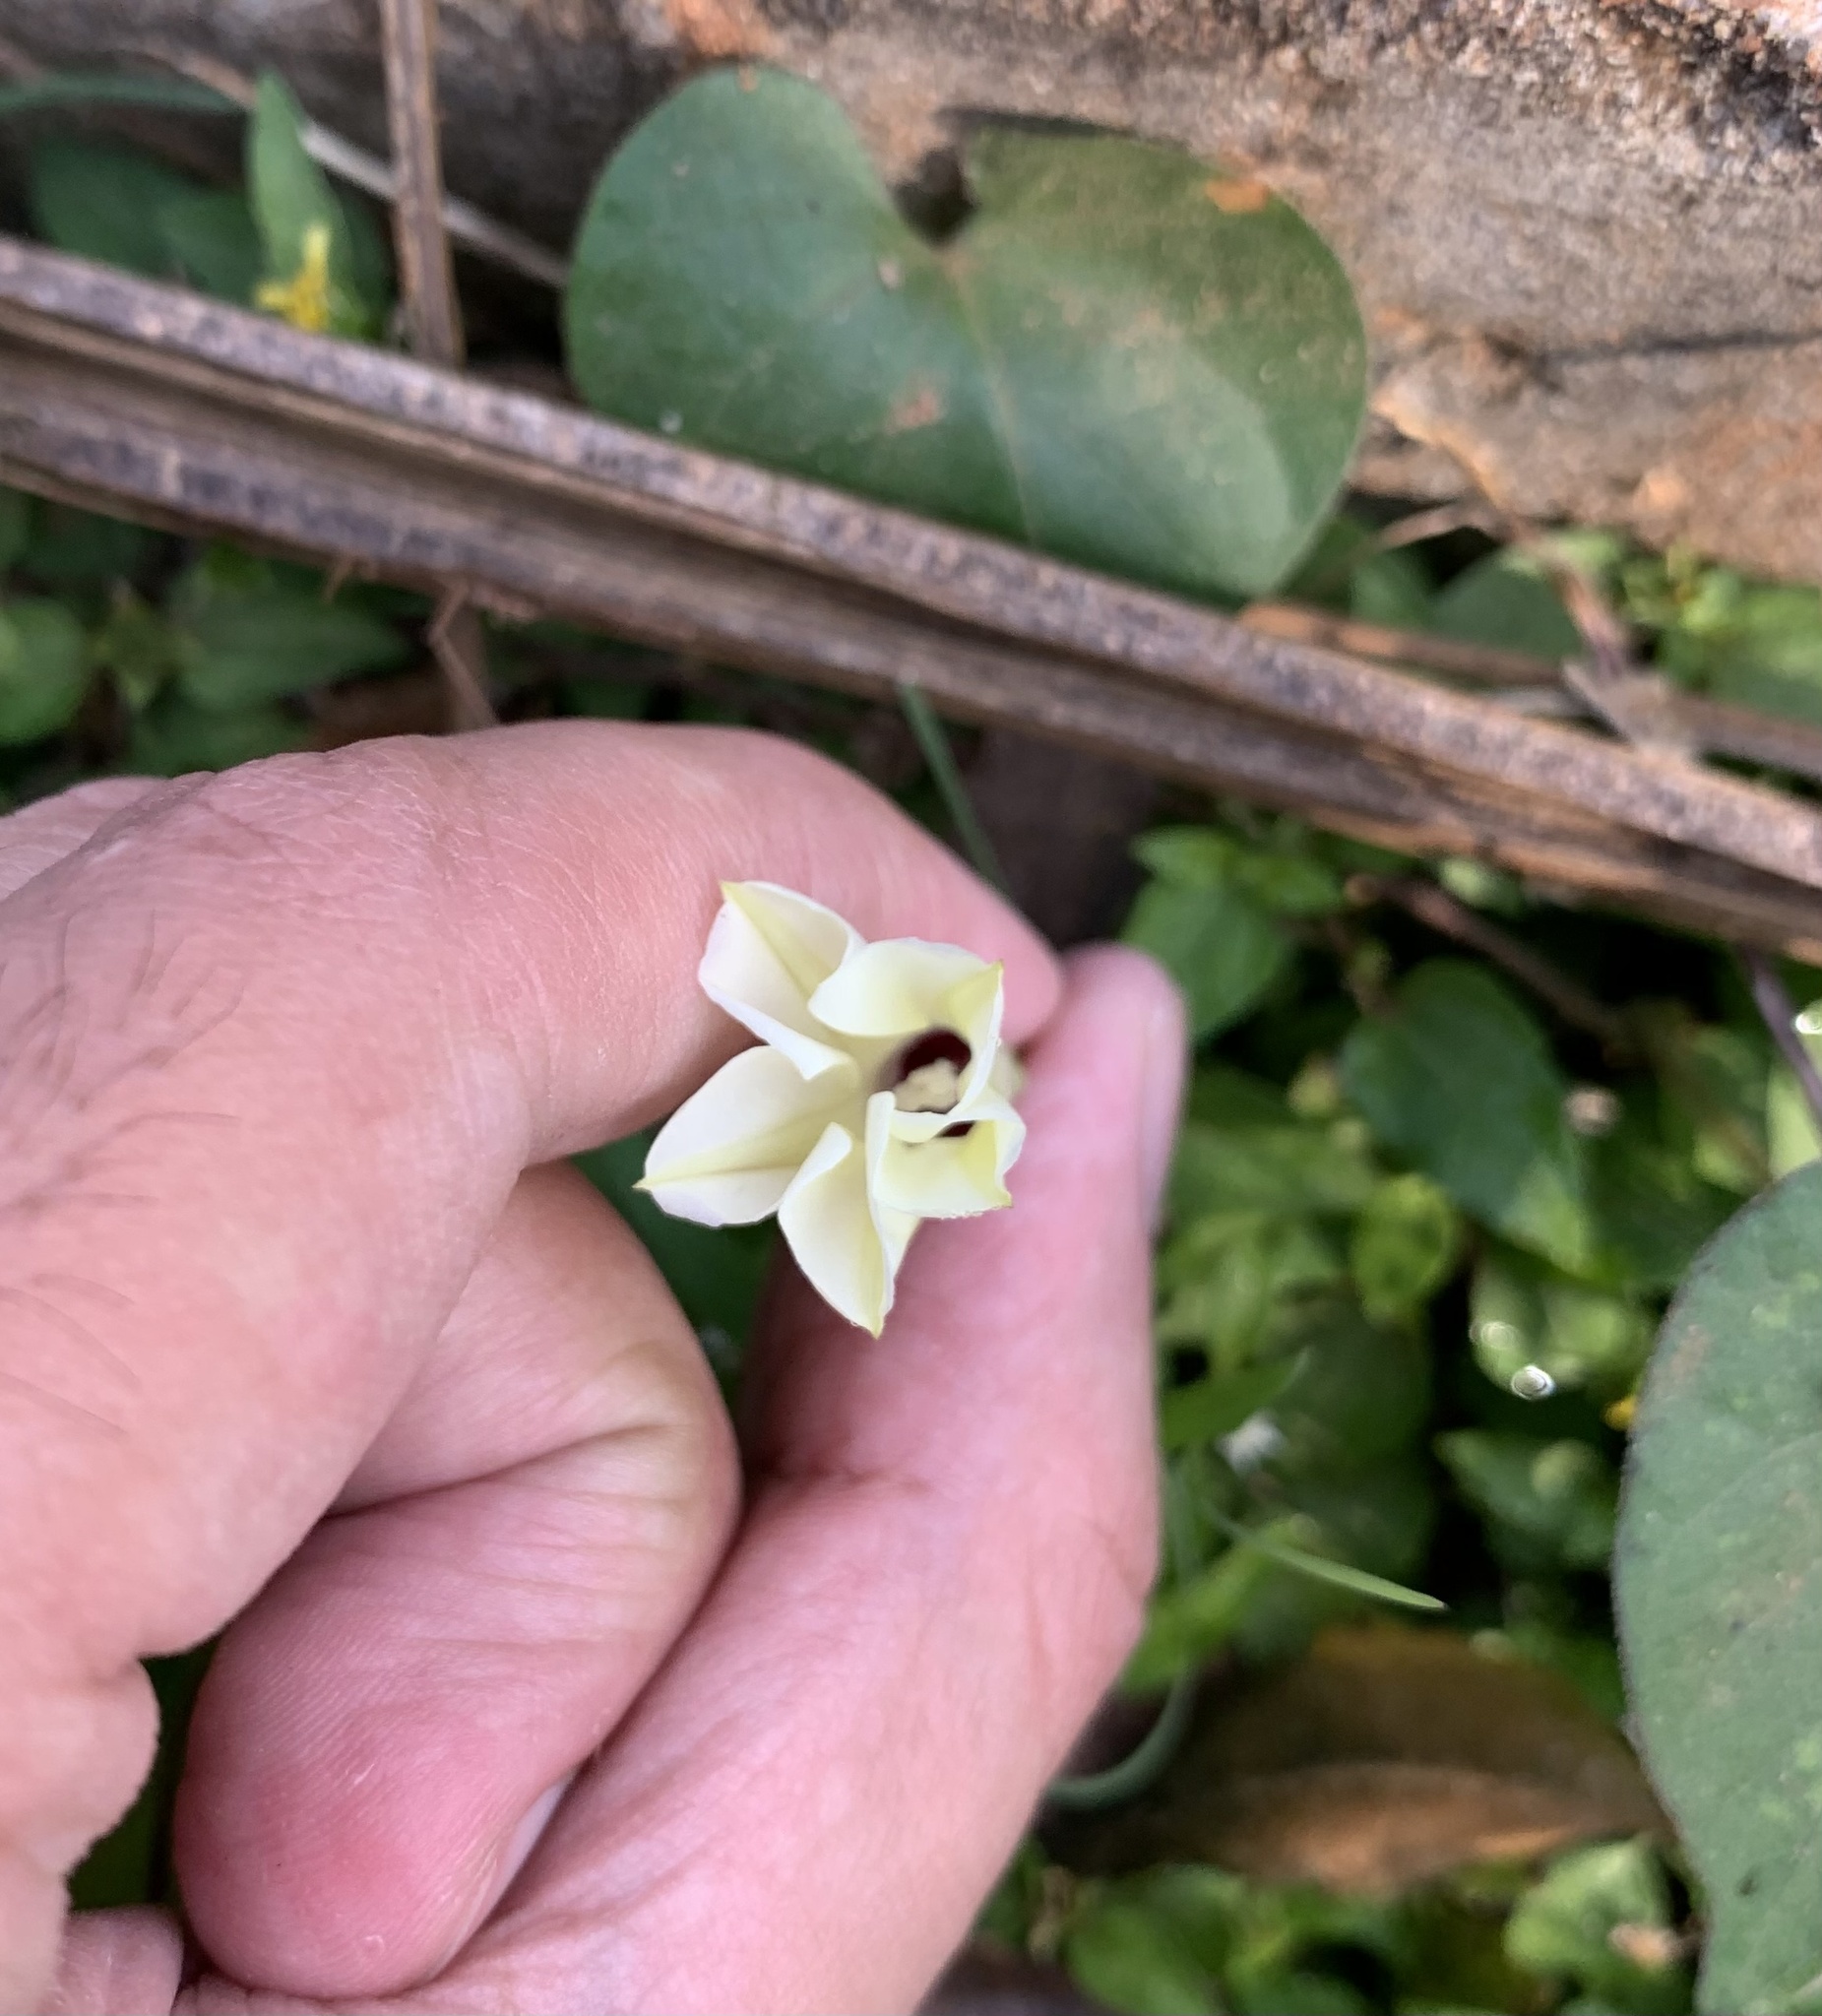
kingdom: Plantae
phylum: Tracheophyta
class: Magnoliopsida
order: Solanales
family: Convolvulaceae
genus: Ipomoea
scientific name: Ipomoea obscura
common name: Obscure morning-glory
